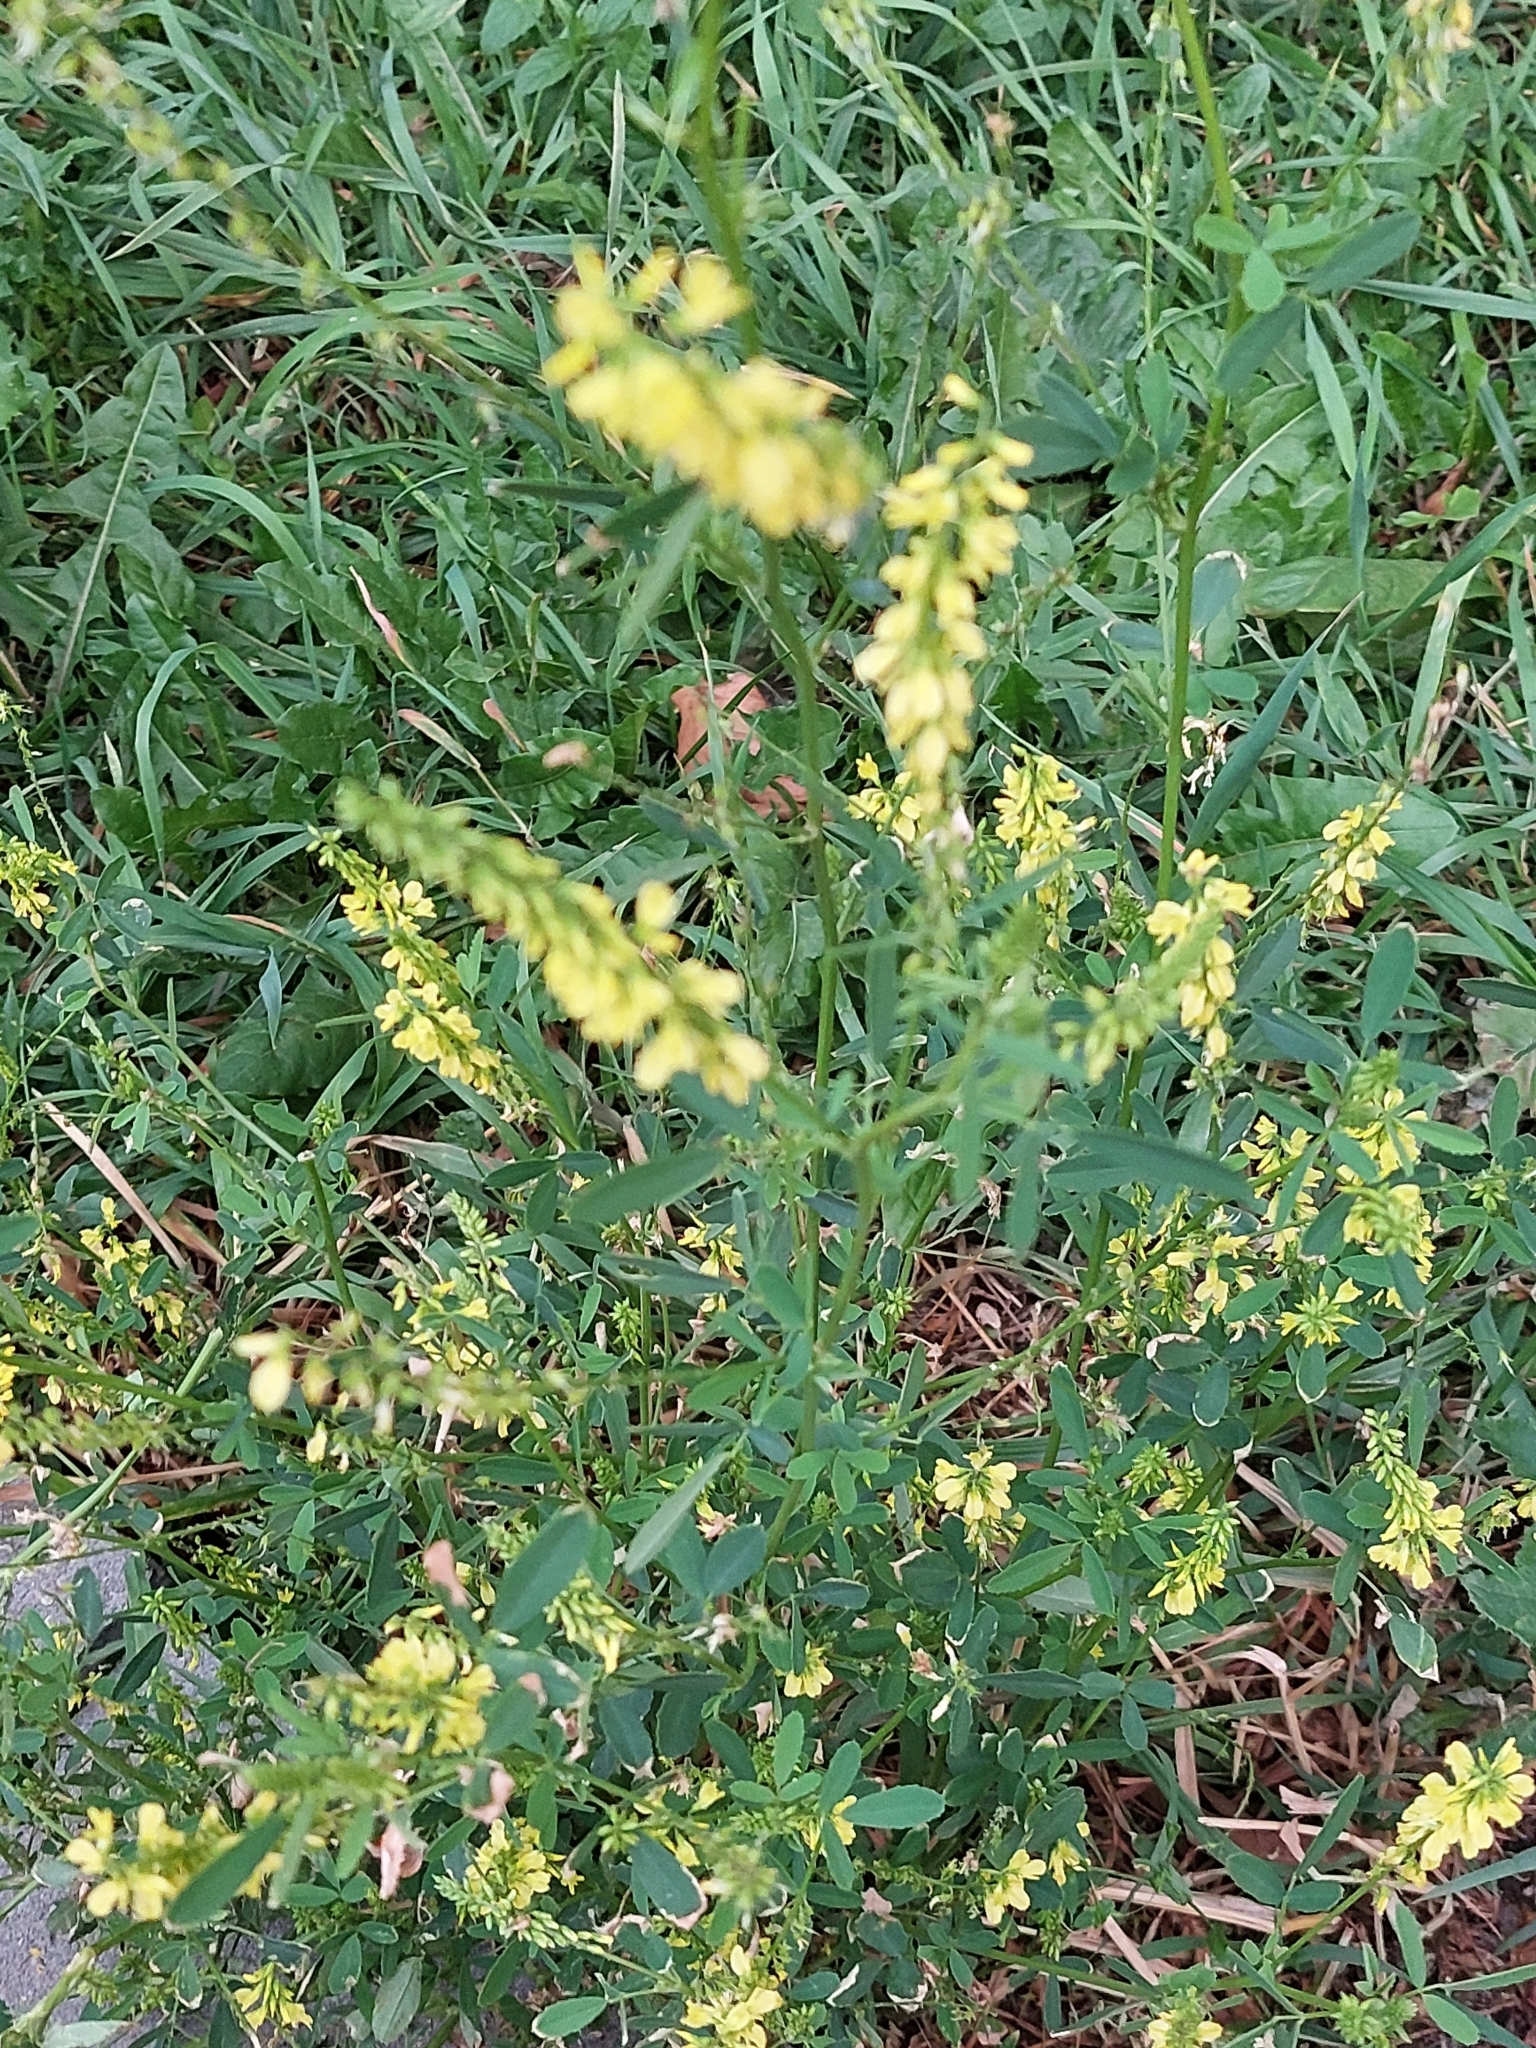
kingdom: Plantae
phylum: Tracheophyta
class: Magnoliopsida
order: Fabales
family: Fabaceae
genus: Melilotus
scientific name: Melilotus officinalis
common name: Sweetclover
